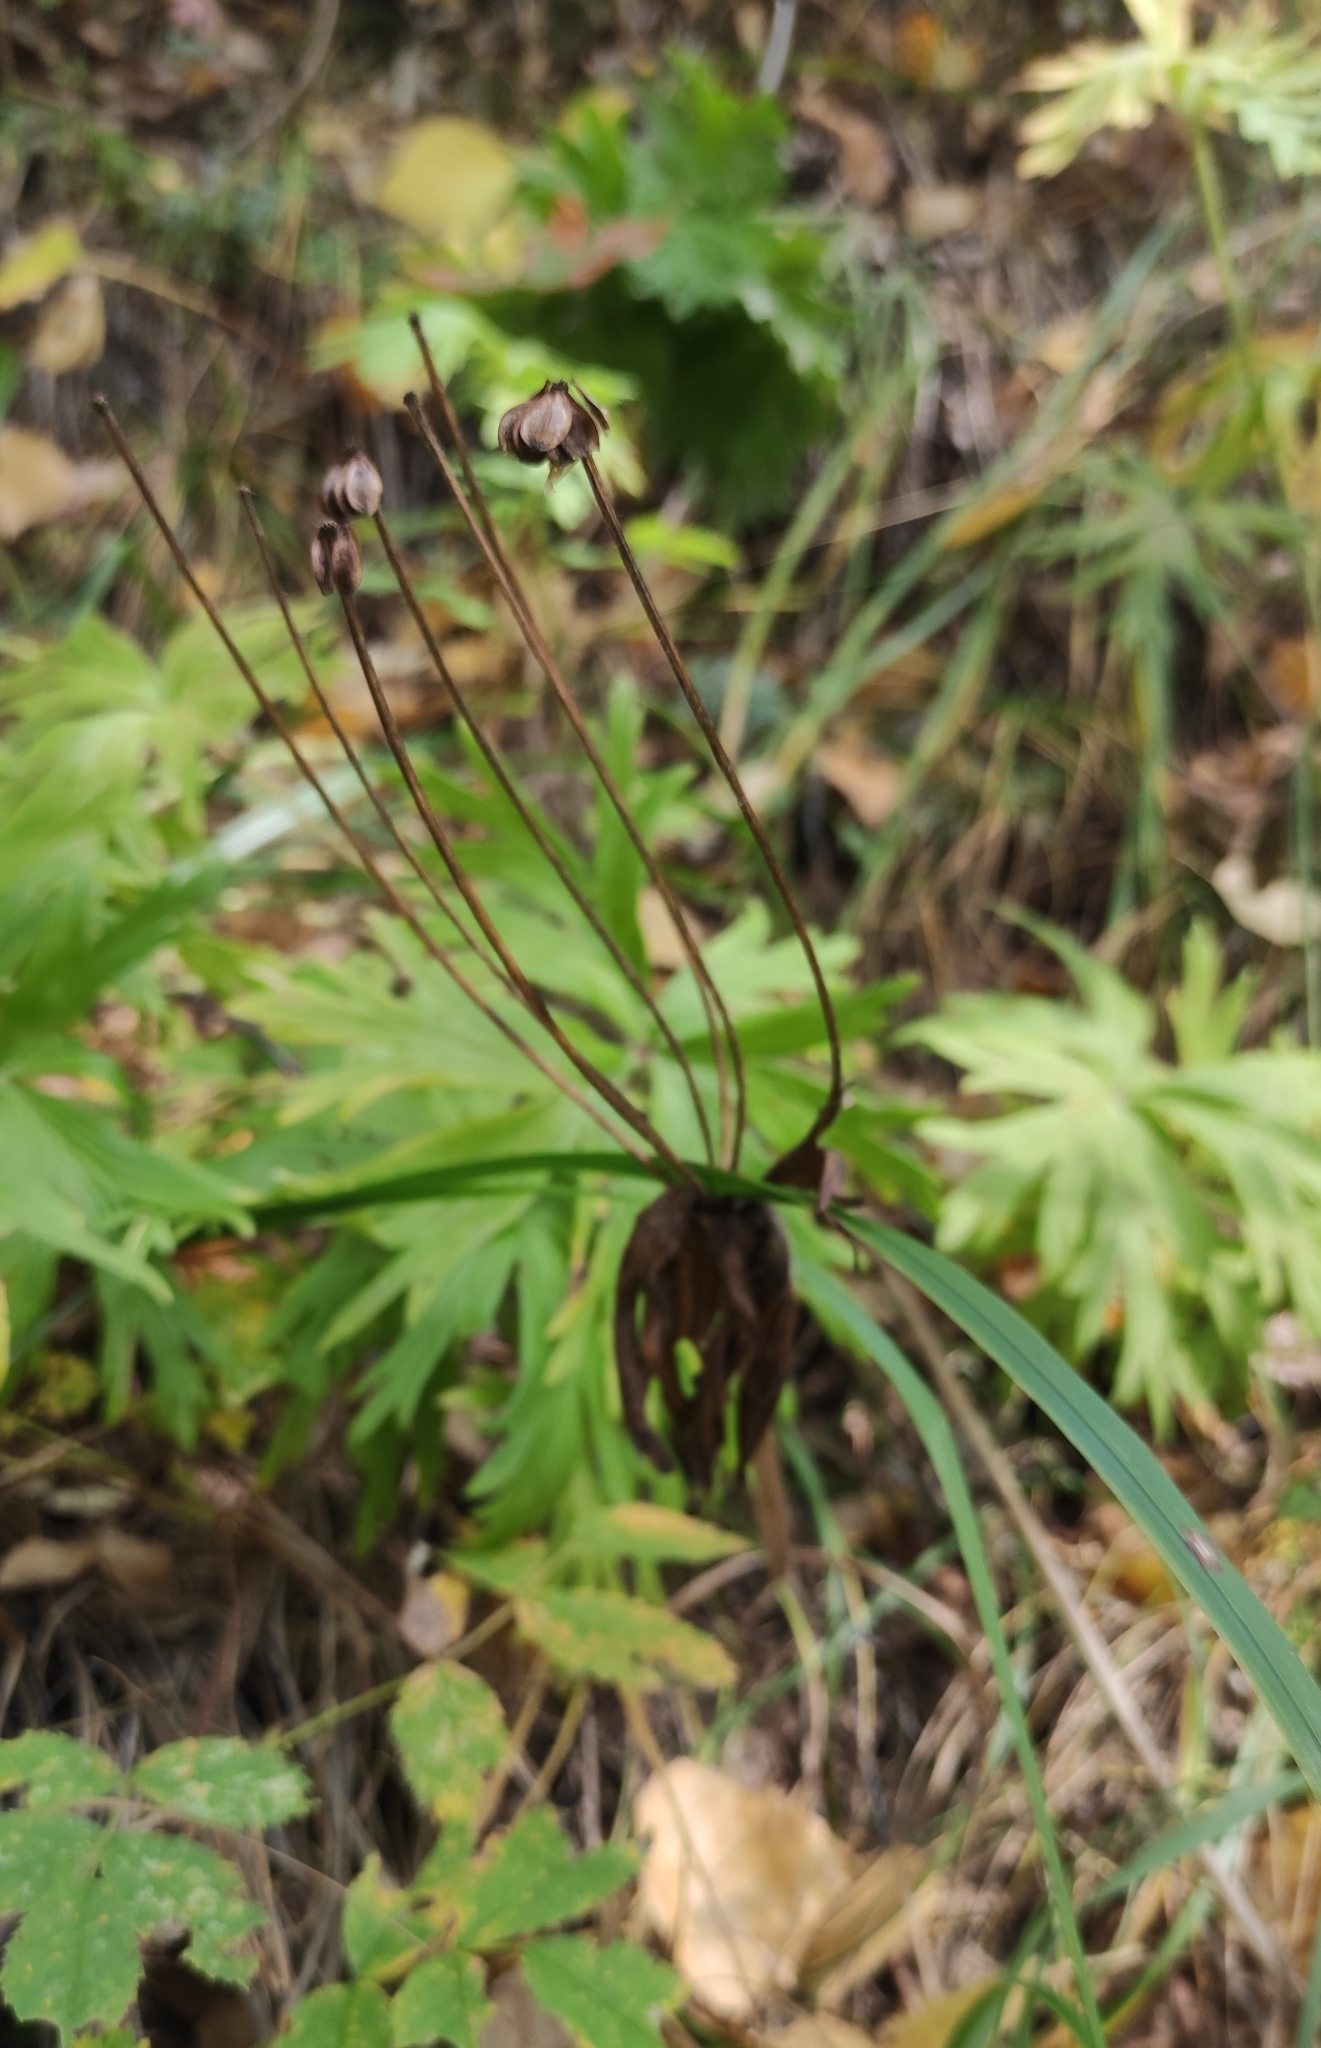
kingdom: Plantae
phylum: Tracheophyta
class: Magnoliopsida
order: Ranunculales
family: Ranunculaceae
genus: Anemonastrum
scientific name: Anemonastrum narcissiflorum
